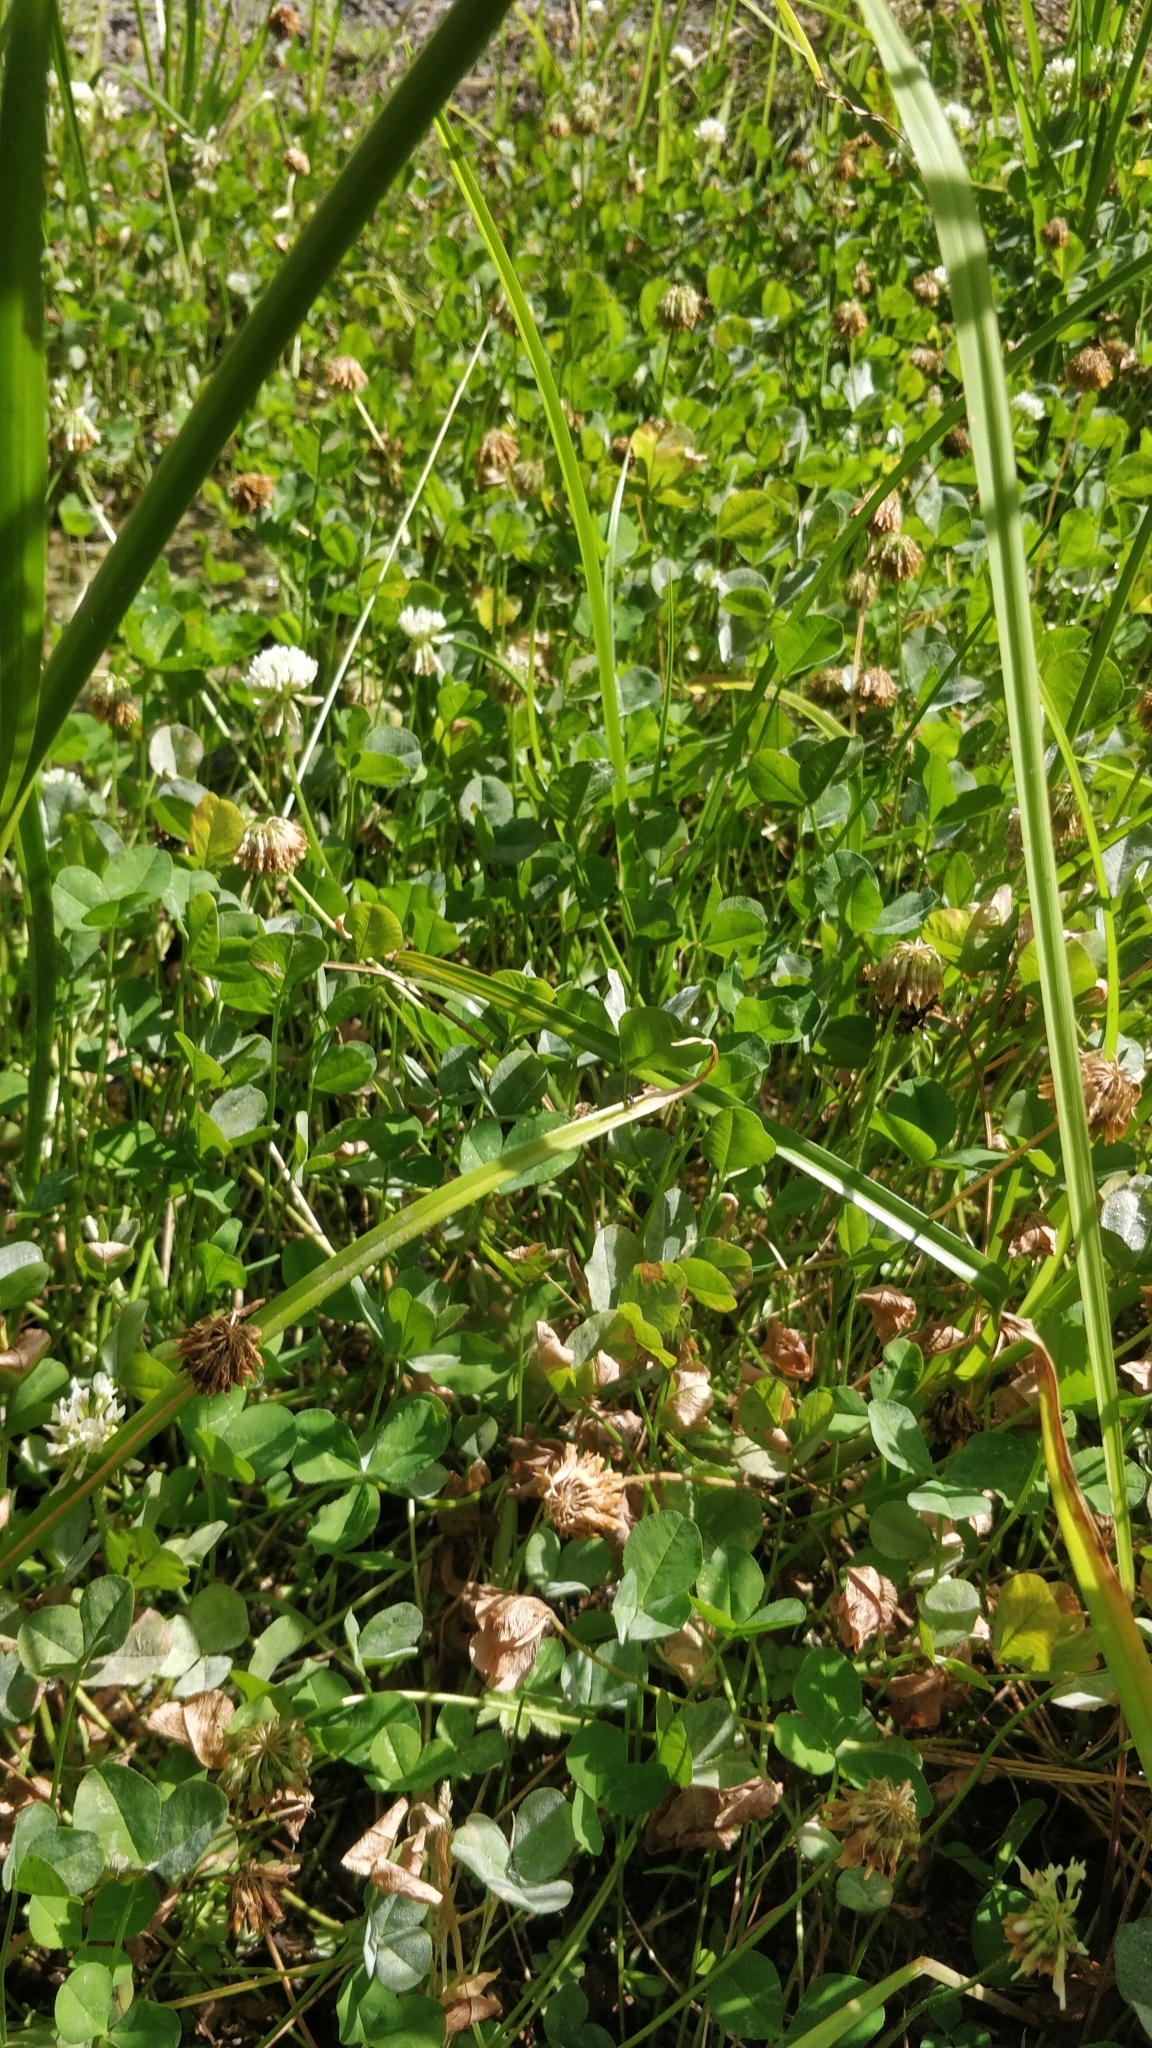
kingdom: Plantae
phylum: Tracheophyta
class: Magnoliopsida
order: Fabales
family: Fabaceae
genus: Trifolium
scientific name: Trifolium repens
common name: White clover
